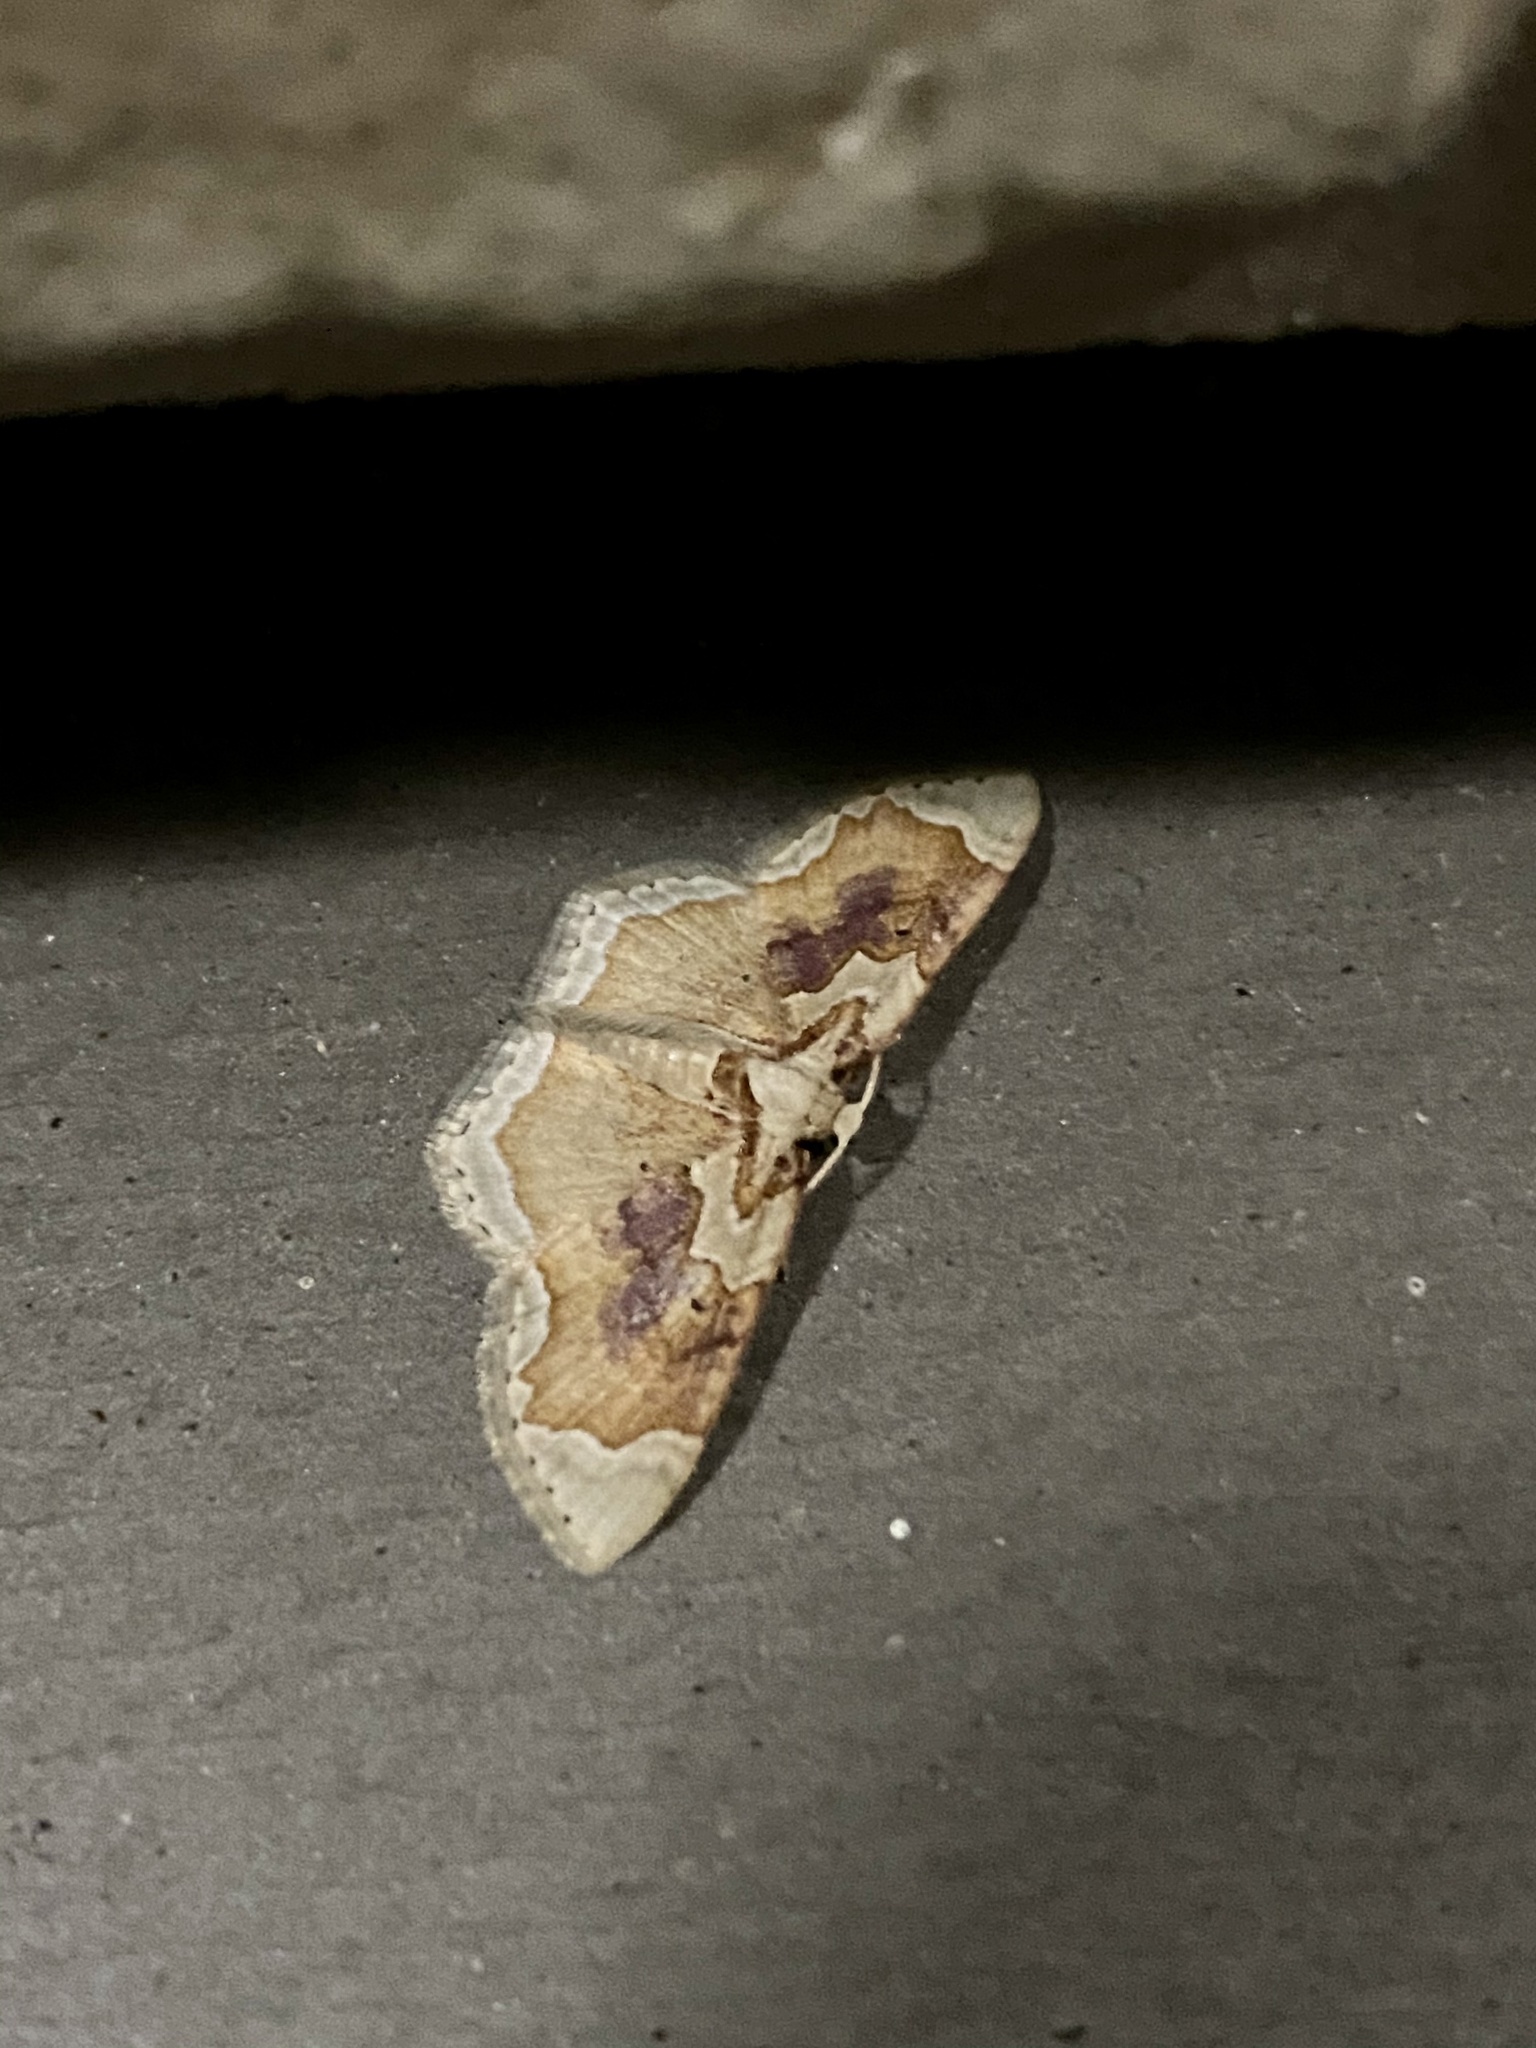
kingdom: Animalia
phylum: Arthropoda
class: Insecta
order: Lepidoptera
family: Geometridae
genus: Palpoctenidia
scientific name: Palpoctenidia phoenicosoma
